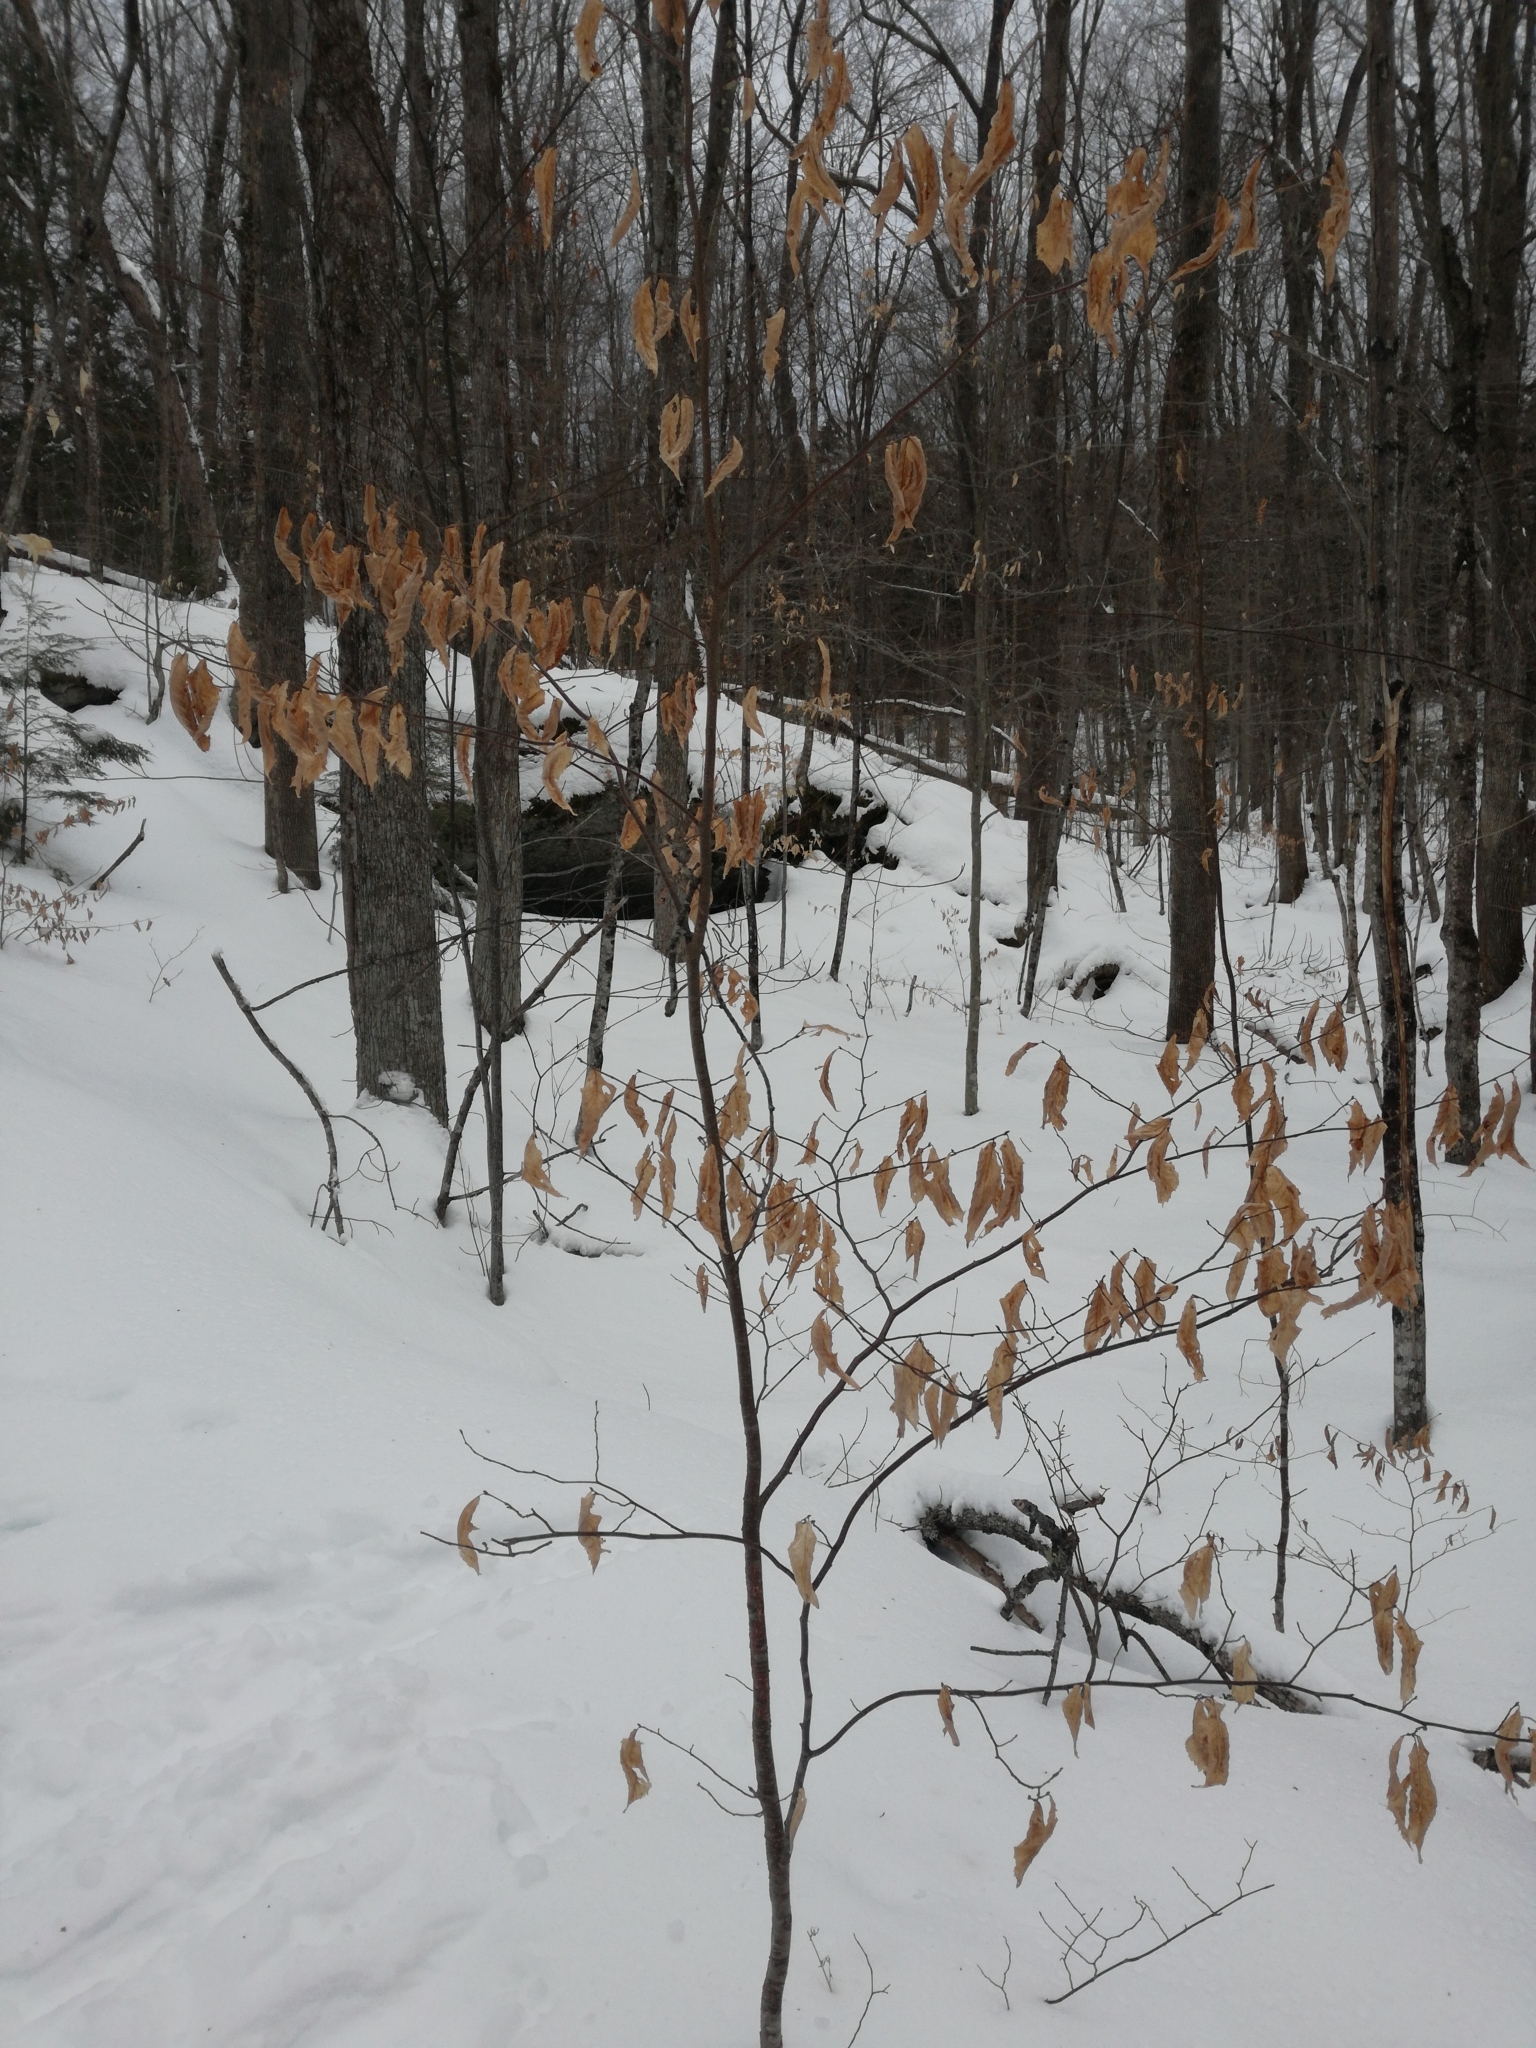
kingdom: Plantae
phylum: Tracheophyta
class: Magnoliopsida
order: Fagales
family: Fagaceae
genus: Fagus
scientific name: Fagus grandifolia
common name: American beech
